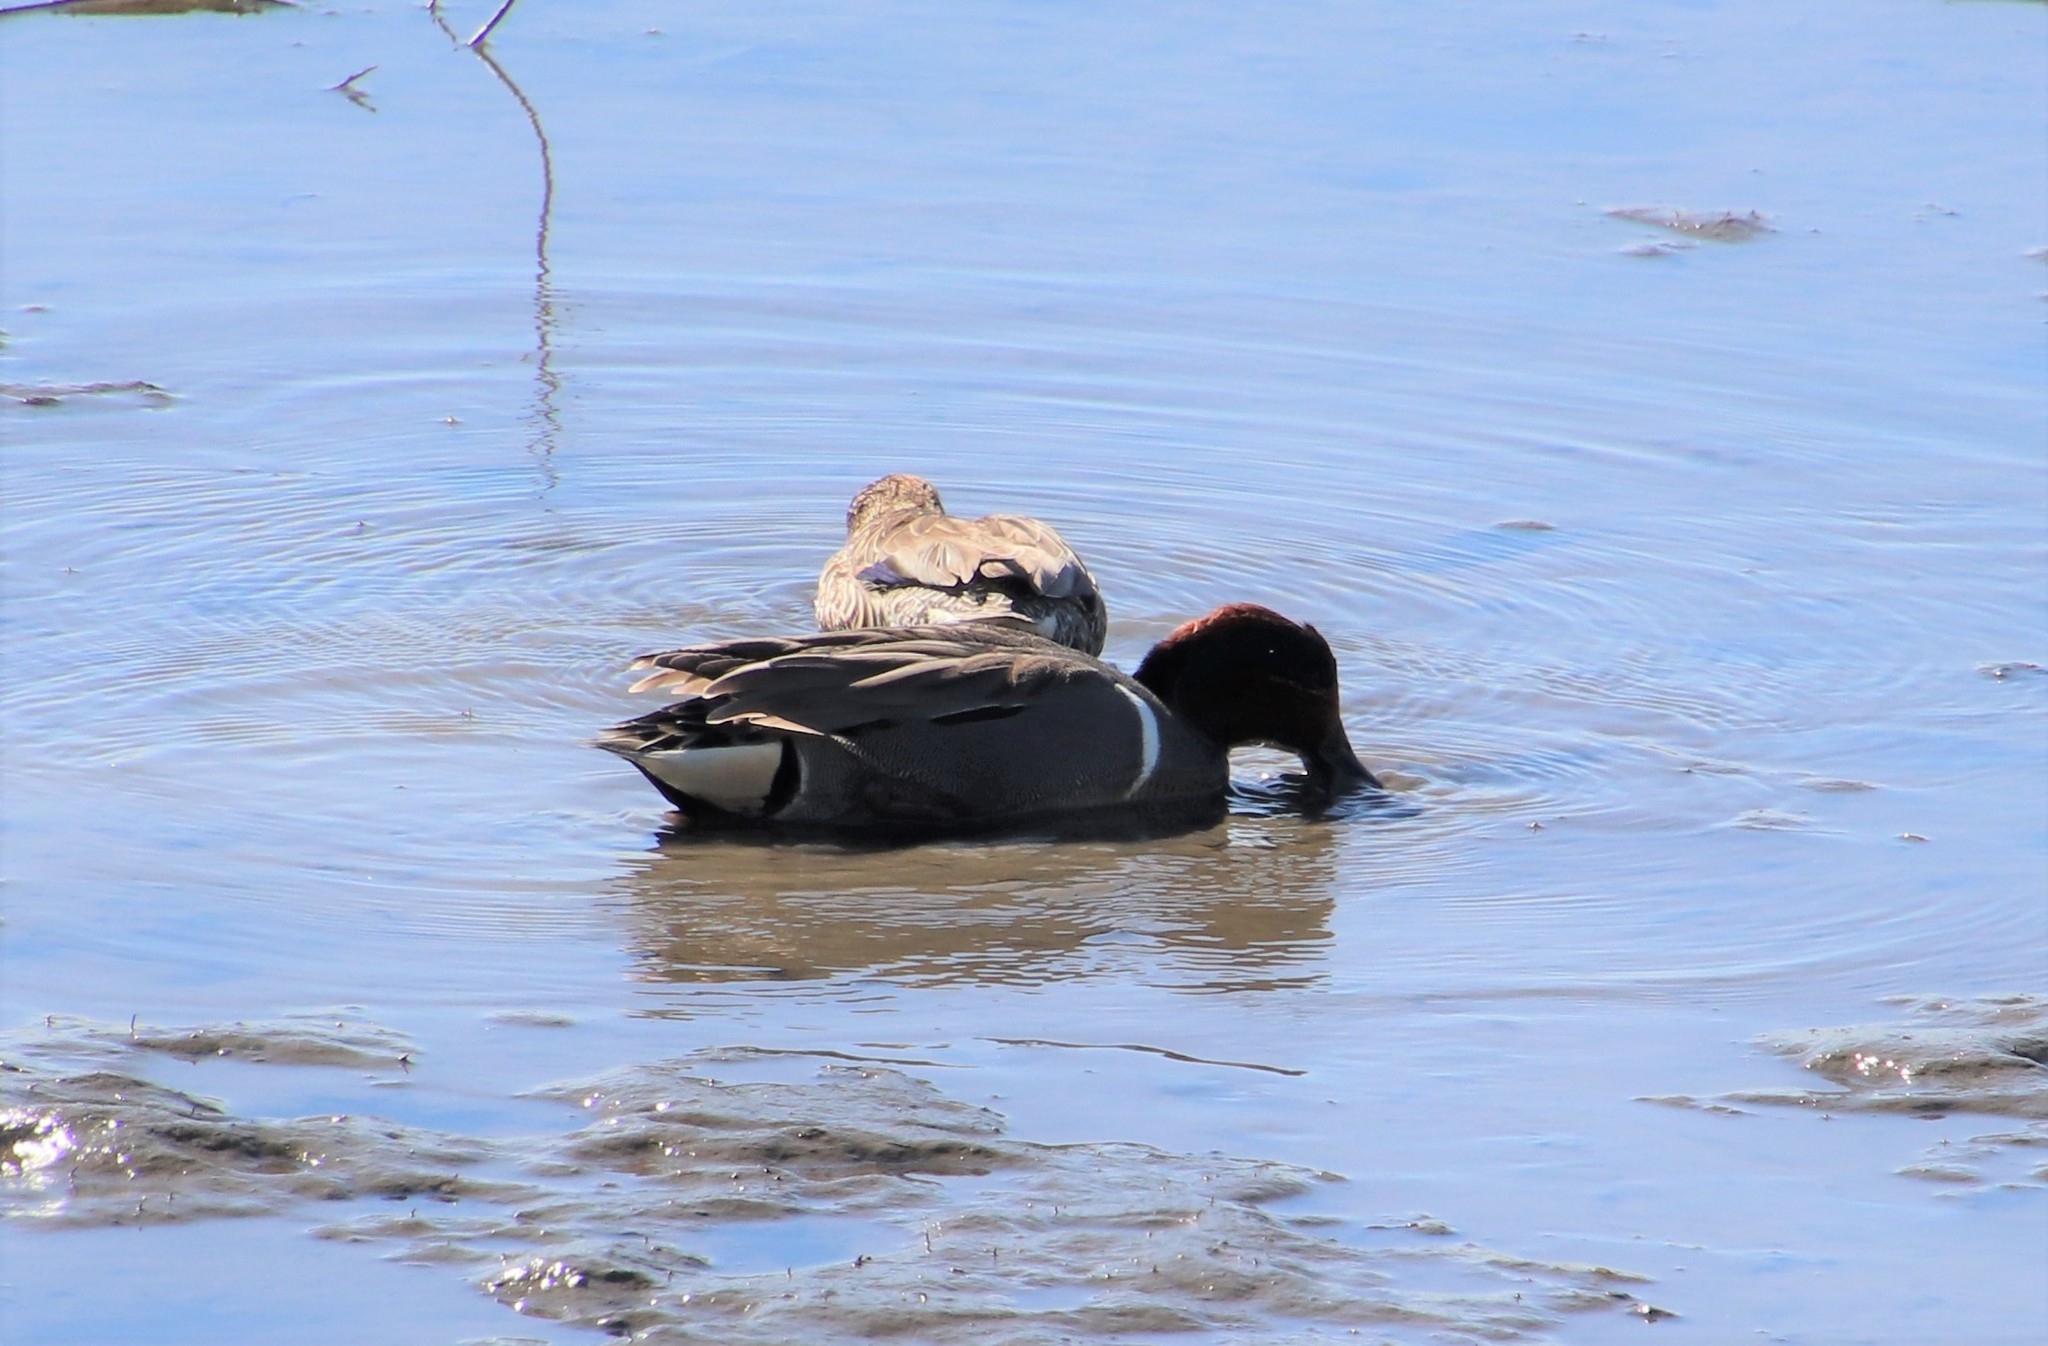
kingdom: Animalia
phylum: Chordata
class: Aves
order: Anseriformes
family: Anatidae
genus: Anas
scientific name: Anas crecca
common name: Eurasian teal
